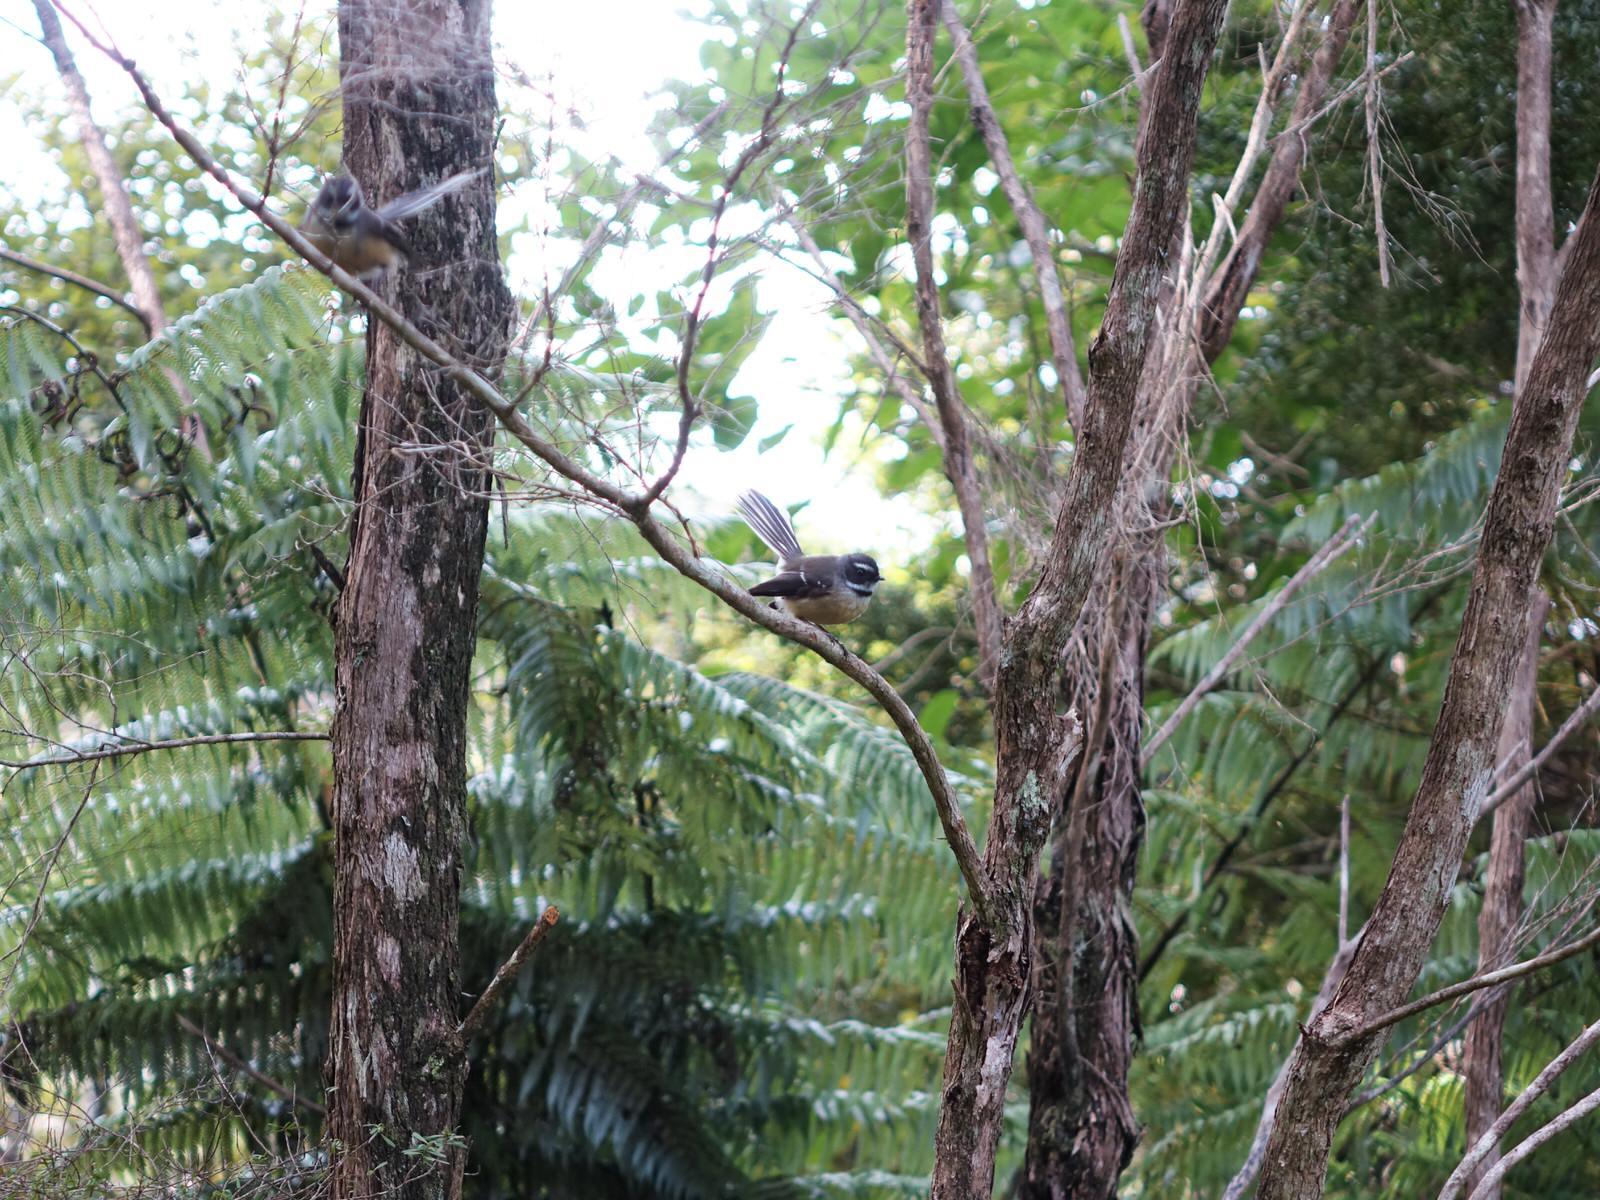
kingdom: Animalia
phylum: Chordata
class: Aves
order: Passeriformes
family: Rhipiduridae
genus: Rhipidura
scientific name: Rhipidura fuliginosa
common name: New zealand fantail
